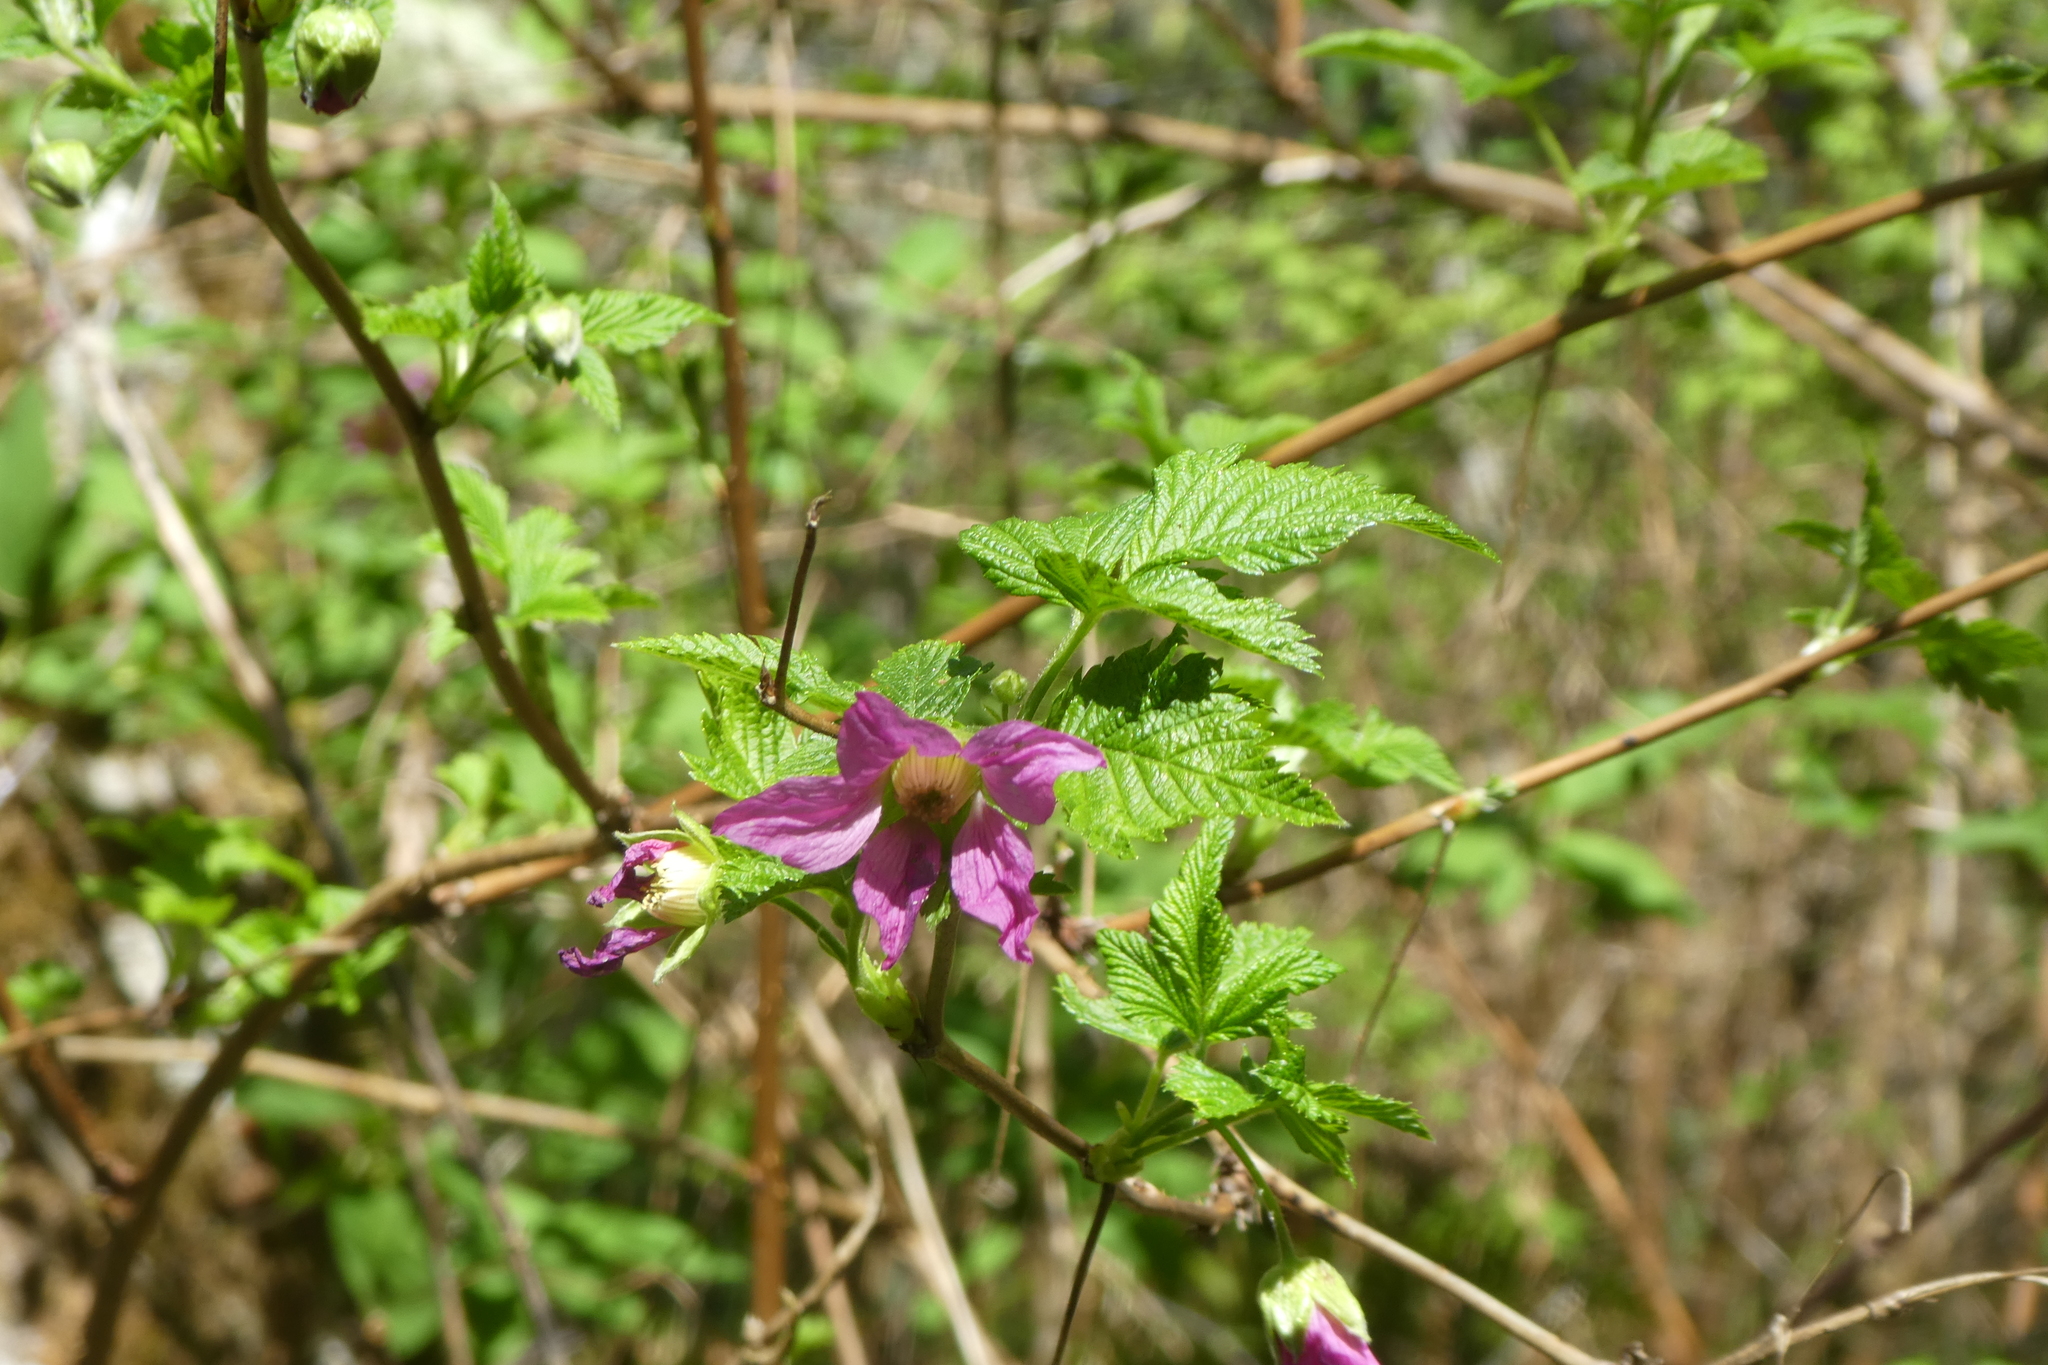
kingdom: Plantae
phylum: Tracheophyta
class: Magnoliopsida
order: Rosales
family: Rosaceae
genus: Rubus
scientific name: Rubus spectabilis
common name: Salmonberry
